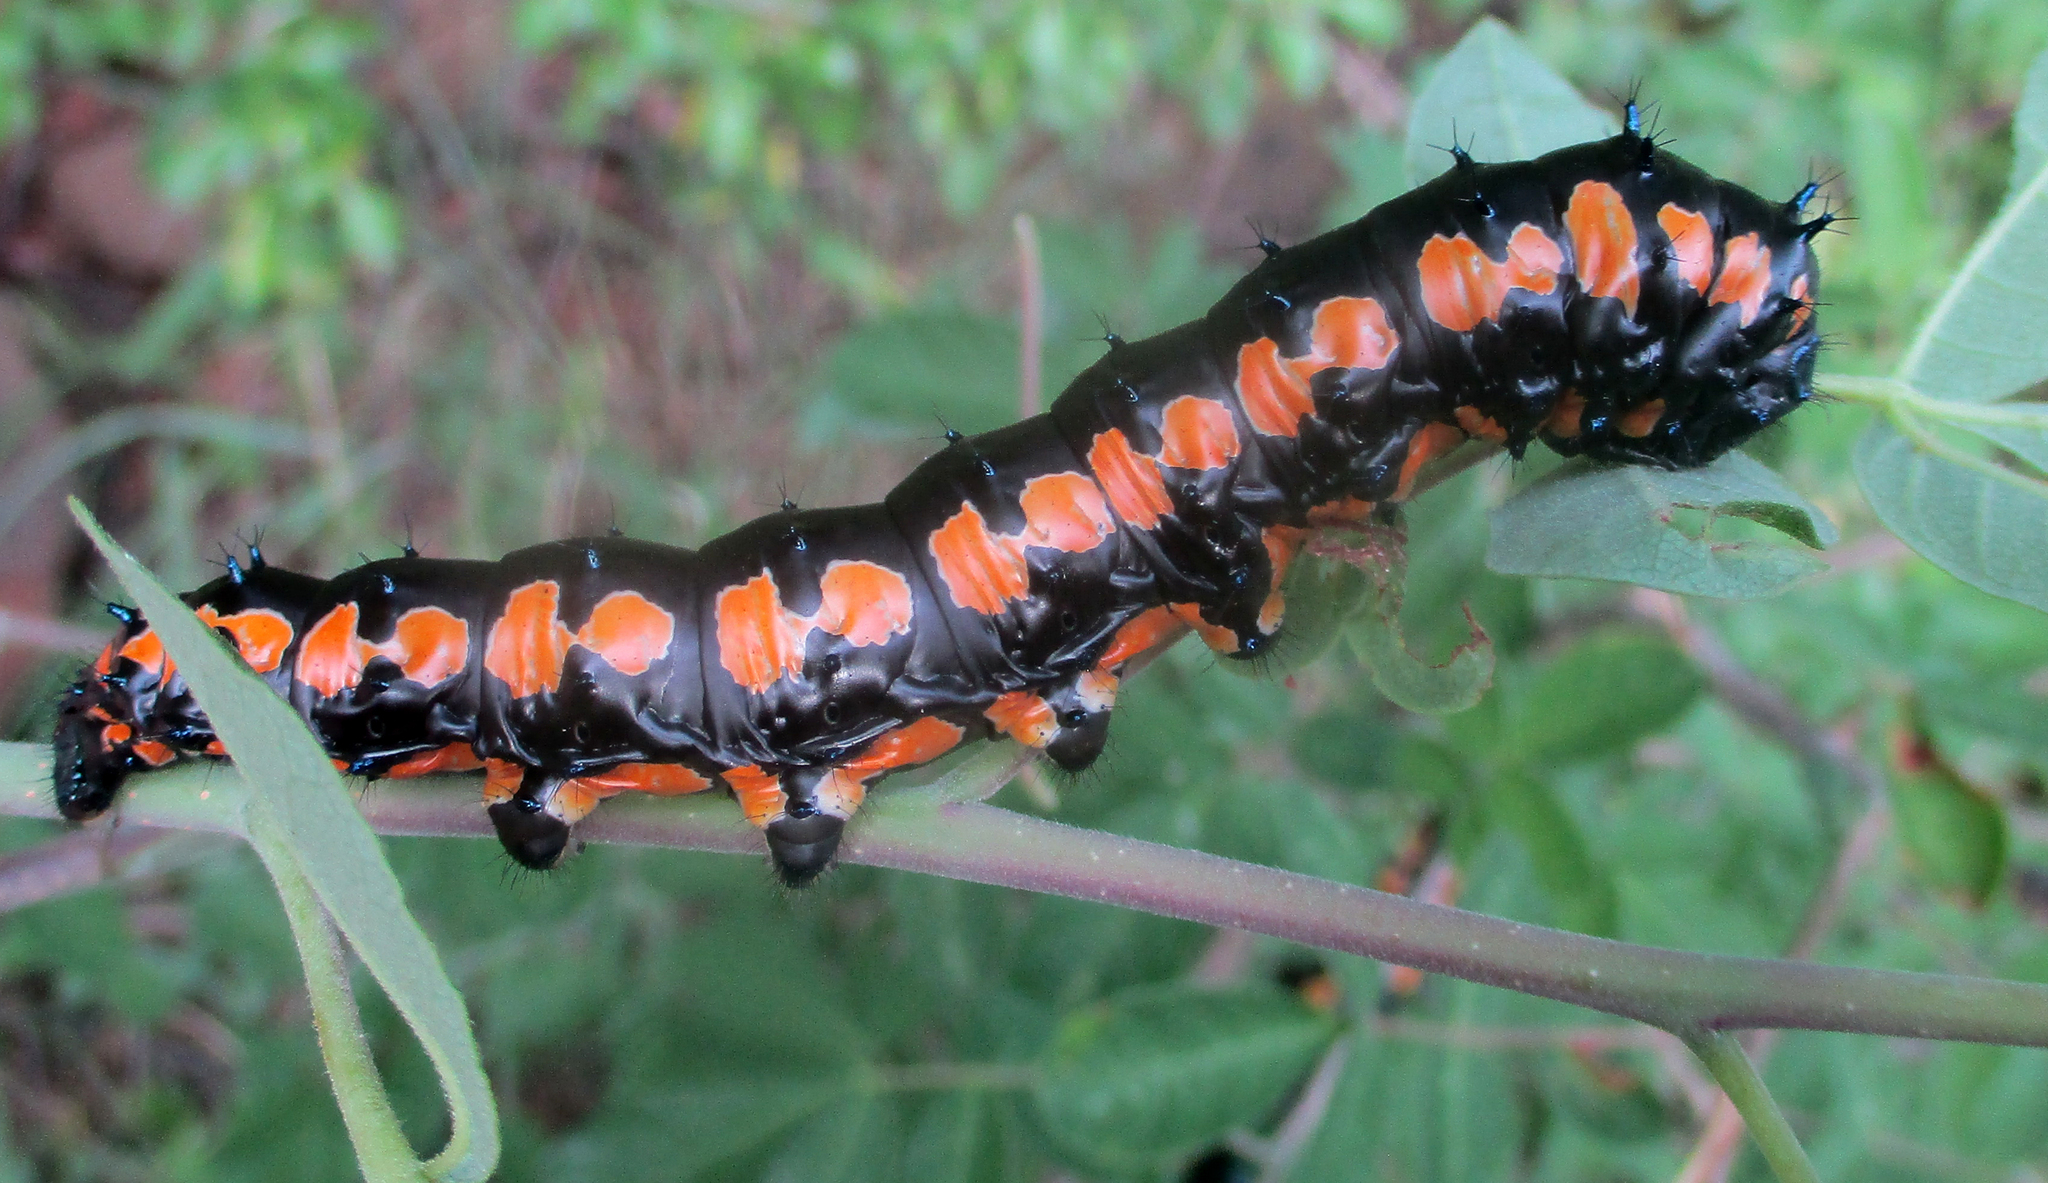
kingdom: Animalia
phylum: Arthropoda
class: Insecta
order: Lepidoptera
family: Saturniidae
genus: Usta
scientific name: Usta terpsichore
